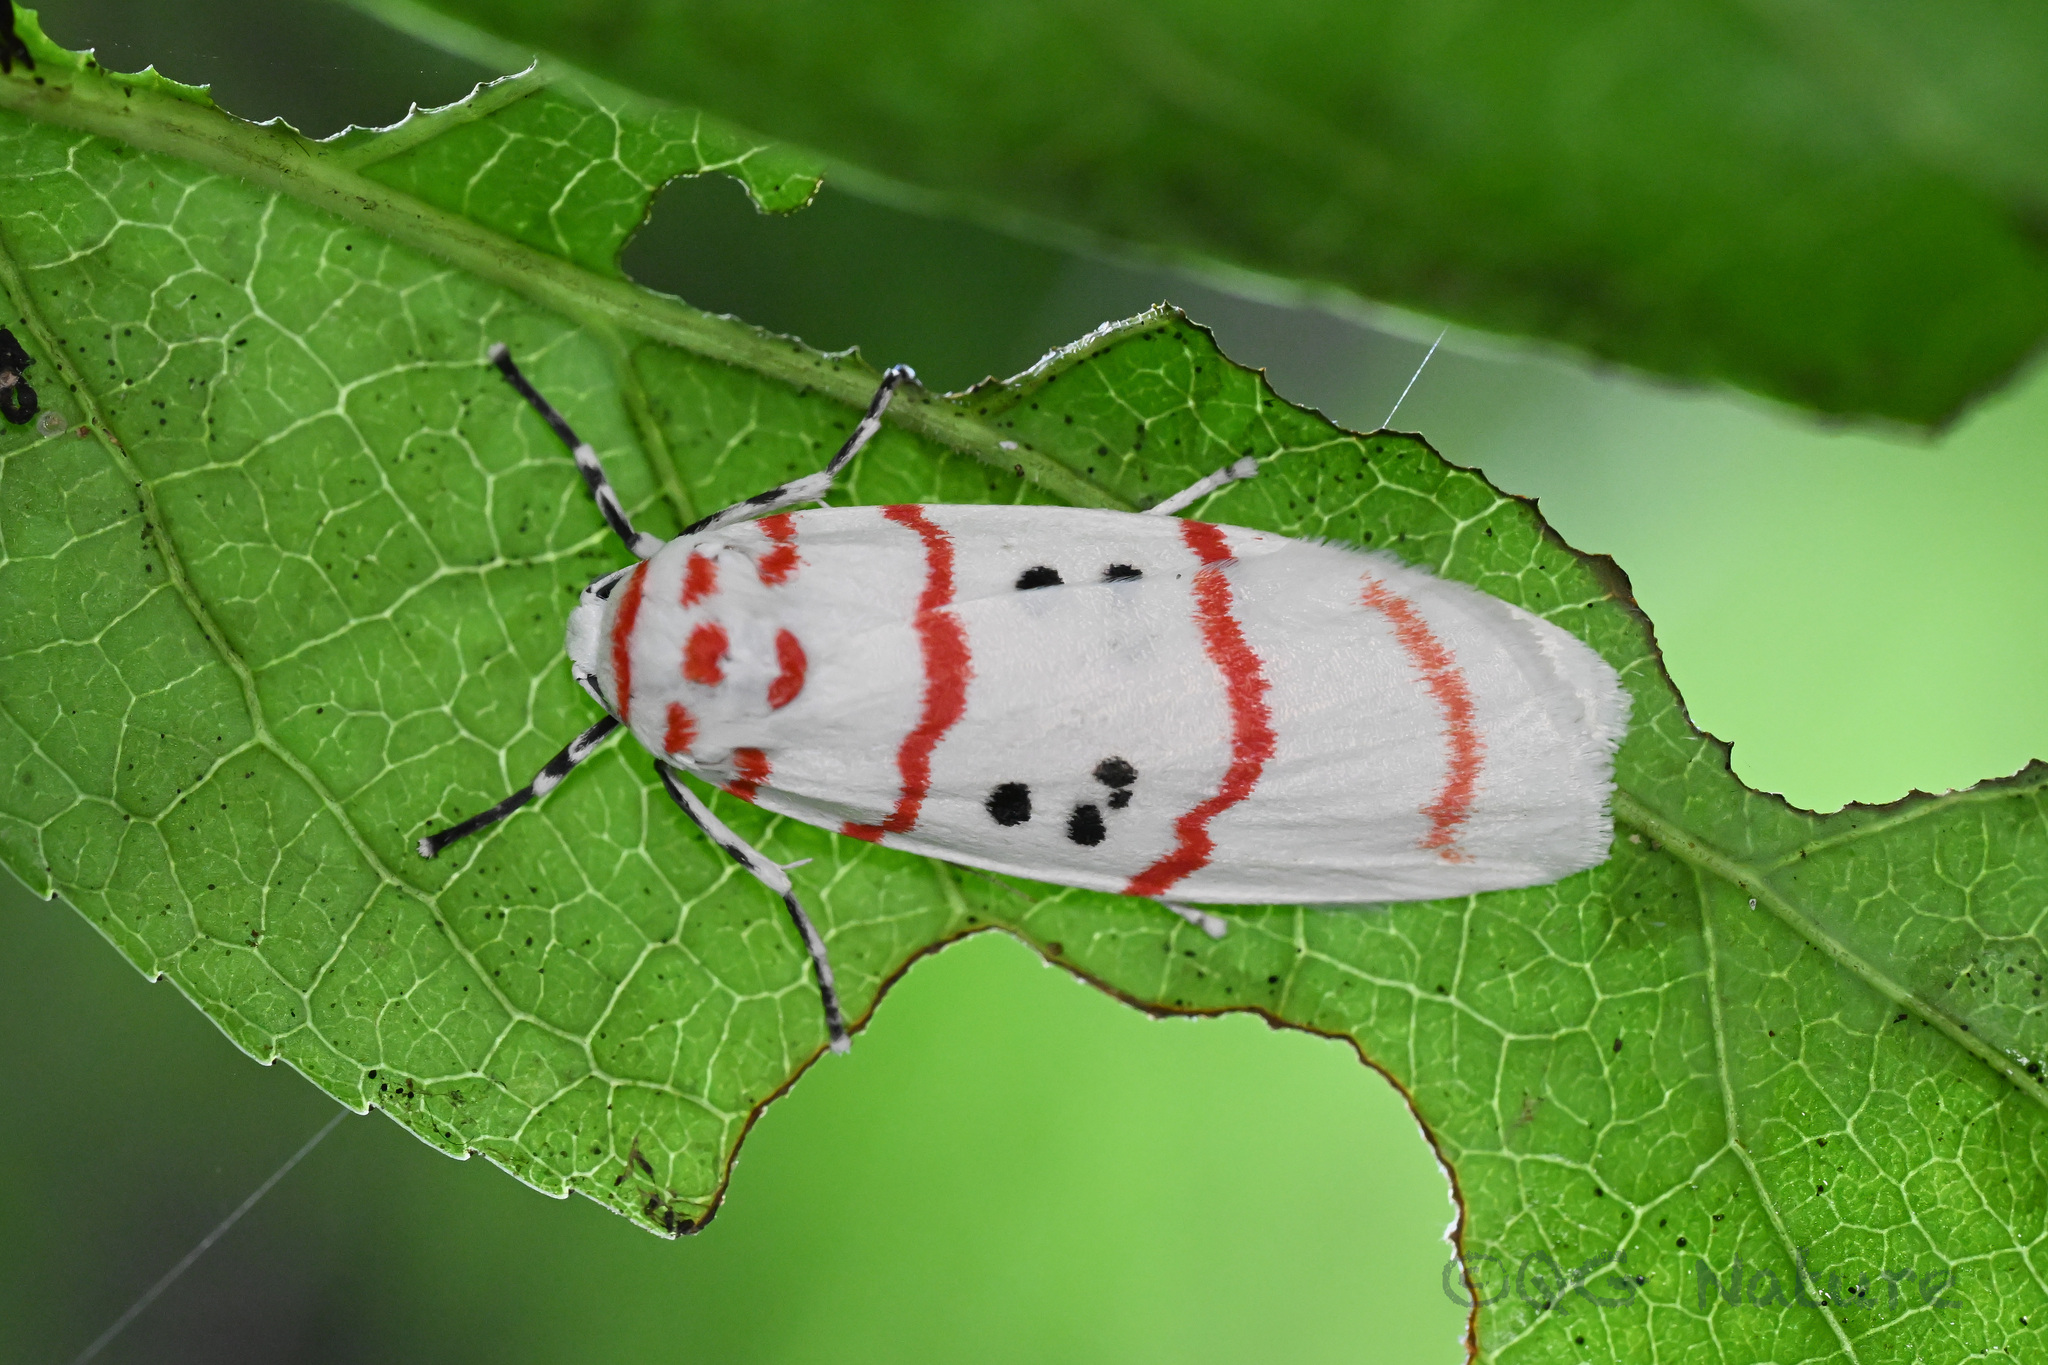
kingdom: Animalia
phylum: Arthropoda
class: Insecta
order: Lepidoptera
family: Erebidae
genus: Cyana
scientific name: Cyana distincta
